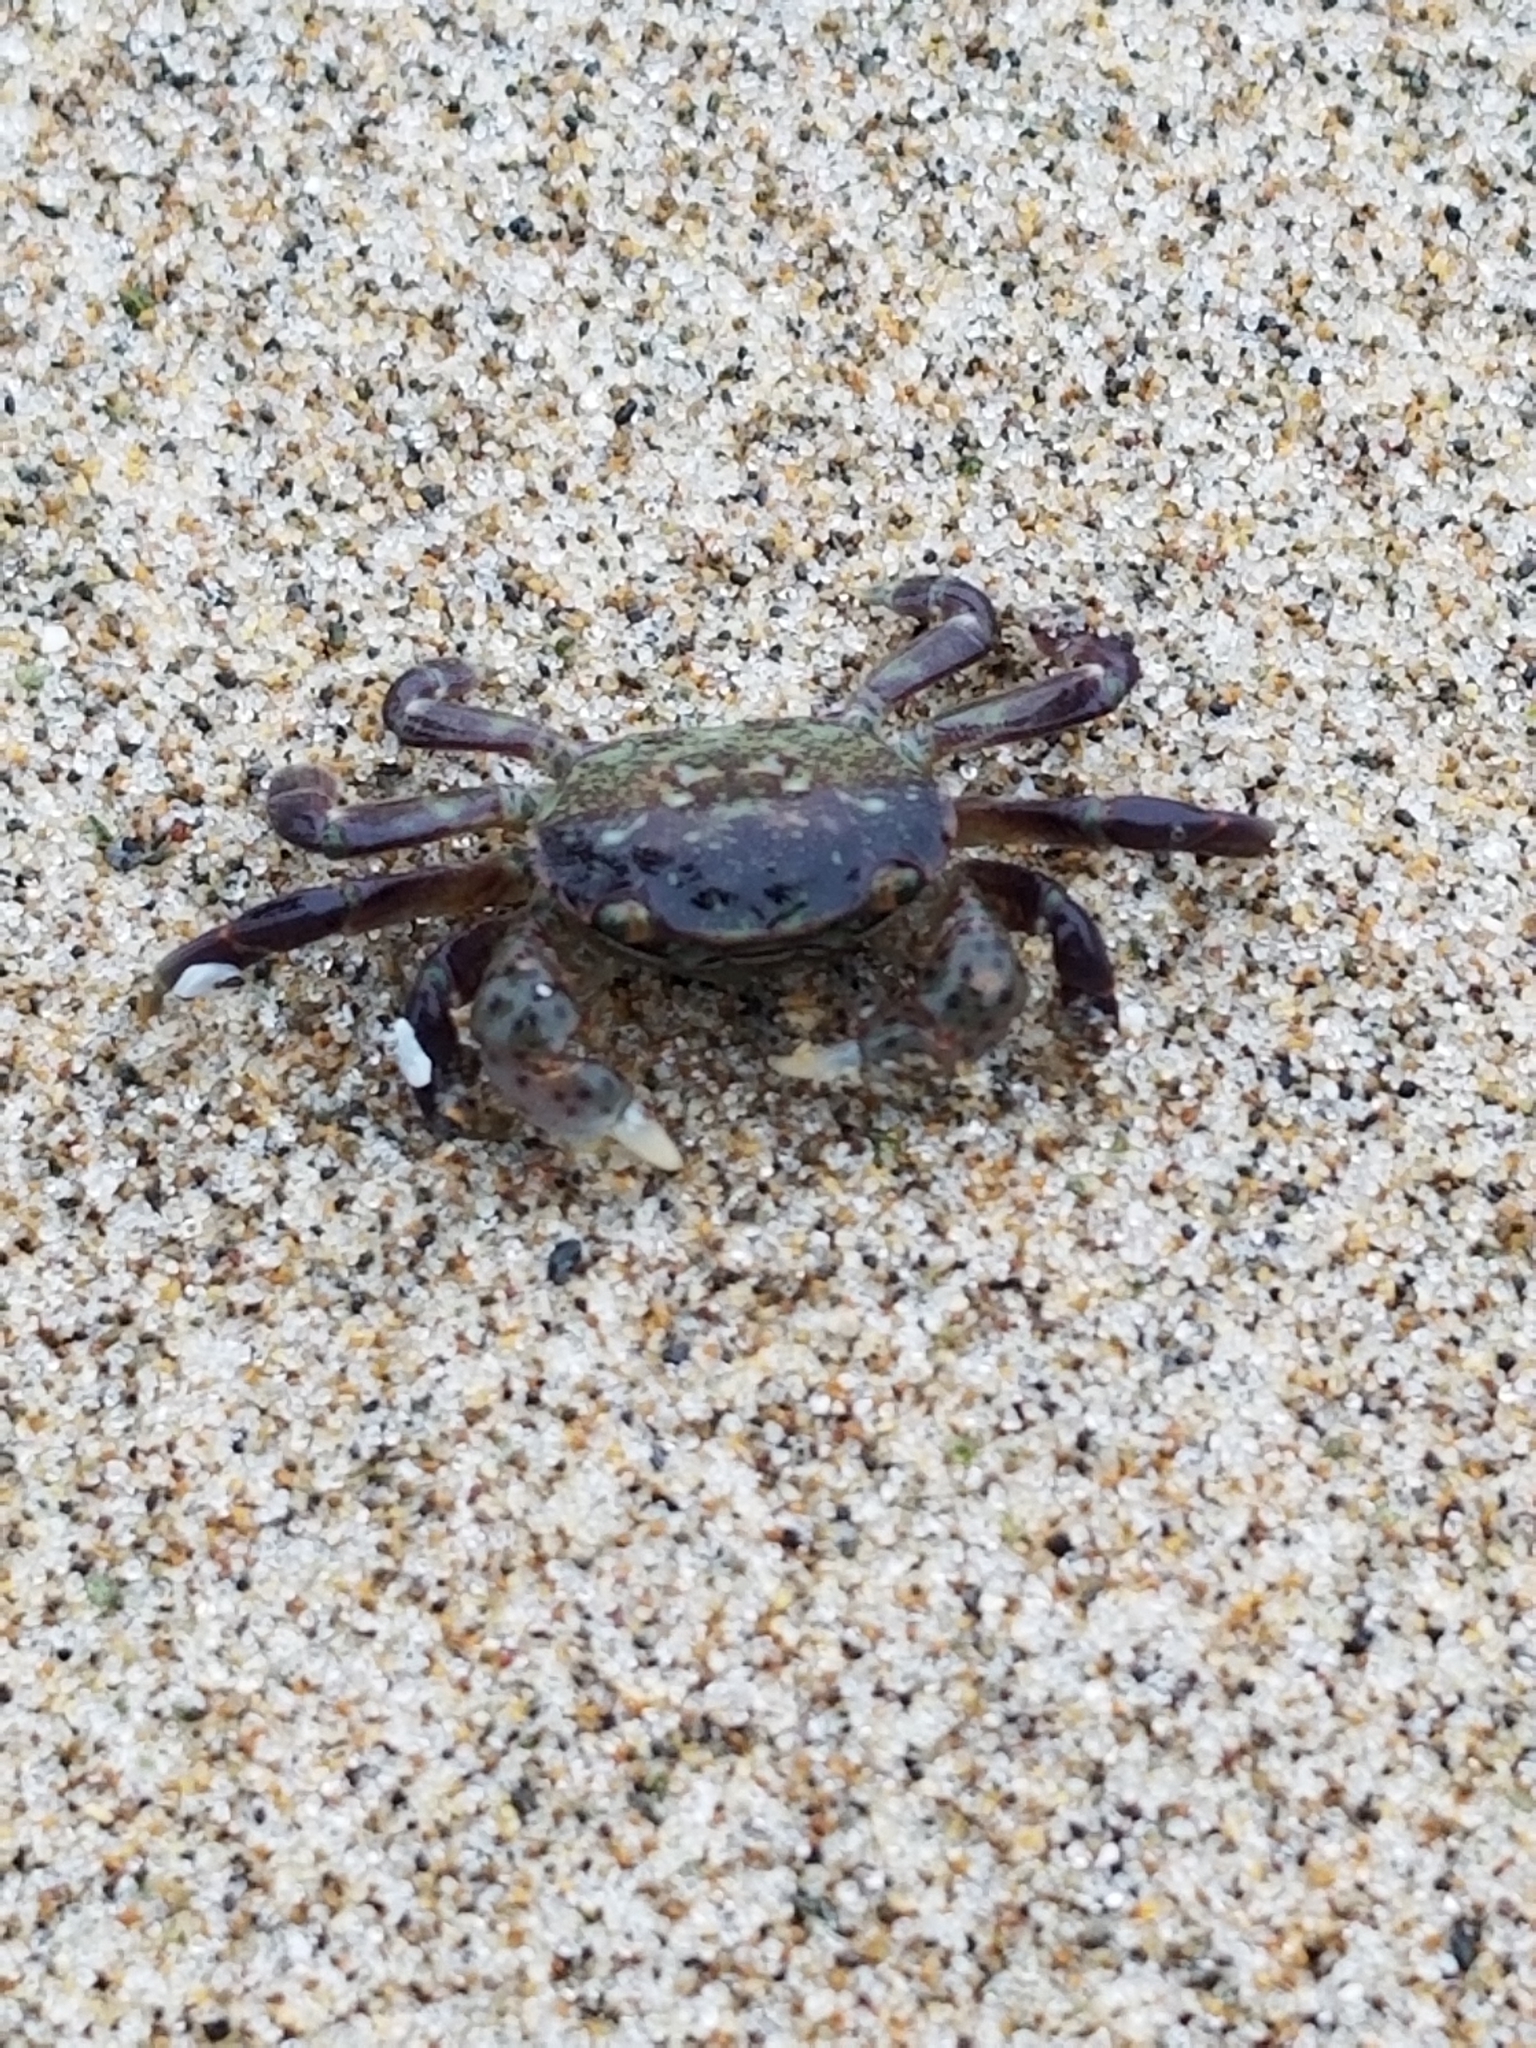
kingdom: Animalia
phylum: Arthropoda
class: Malacostraca
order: Decapoda
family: Grapsidae
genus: Pachygrapsus
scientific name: Pachygrapsus crassipes
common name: Striped shore crab
